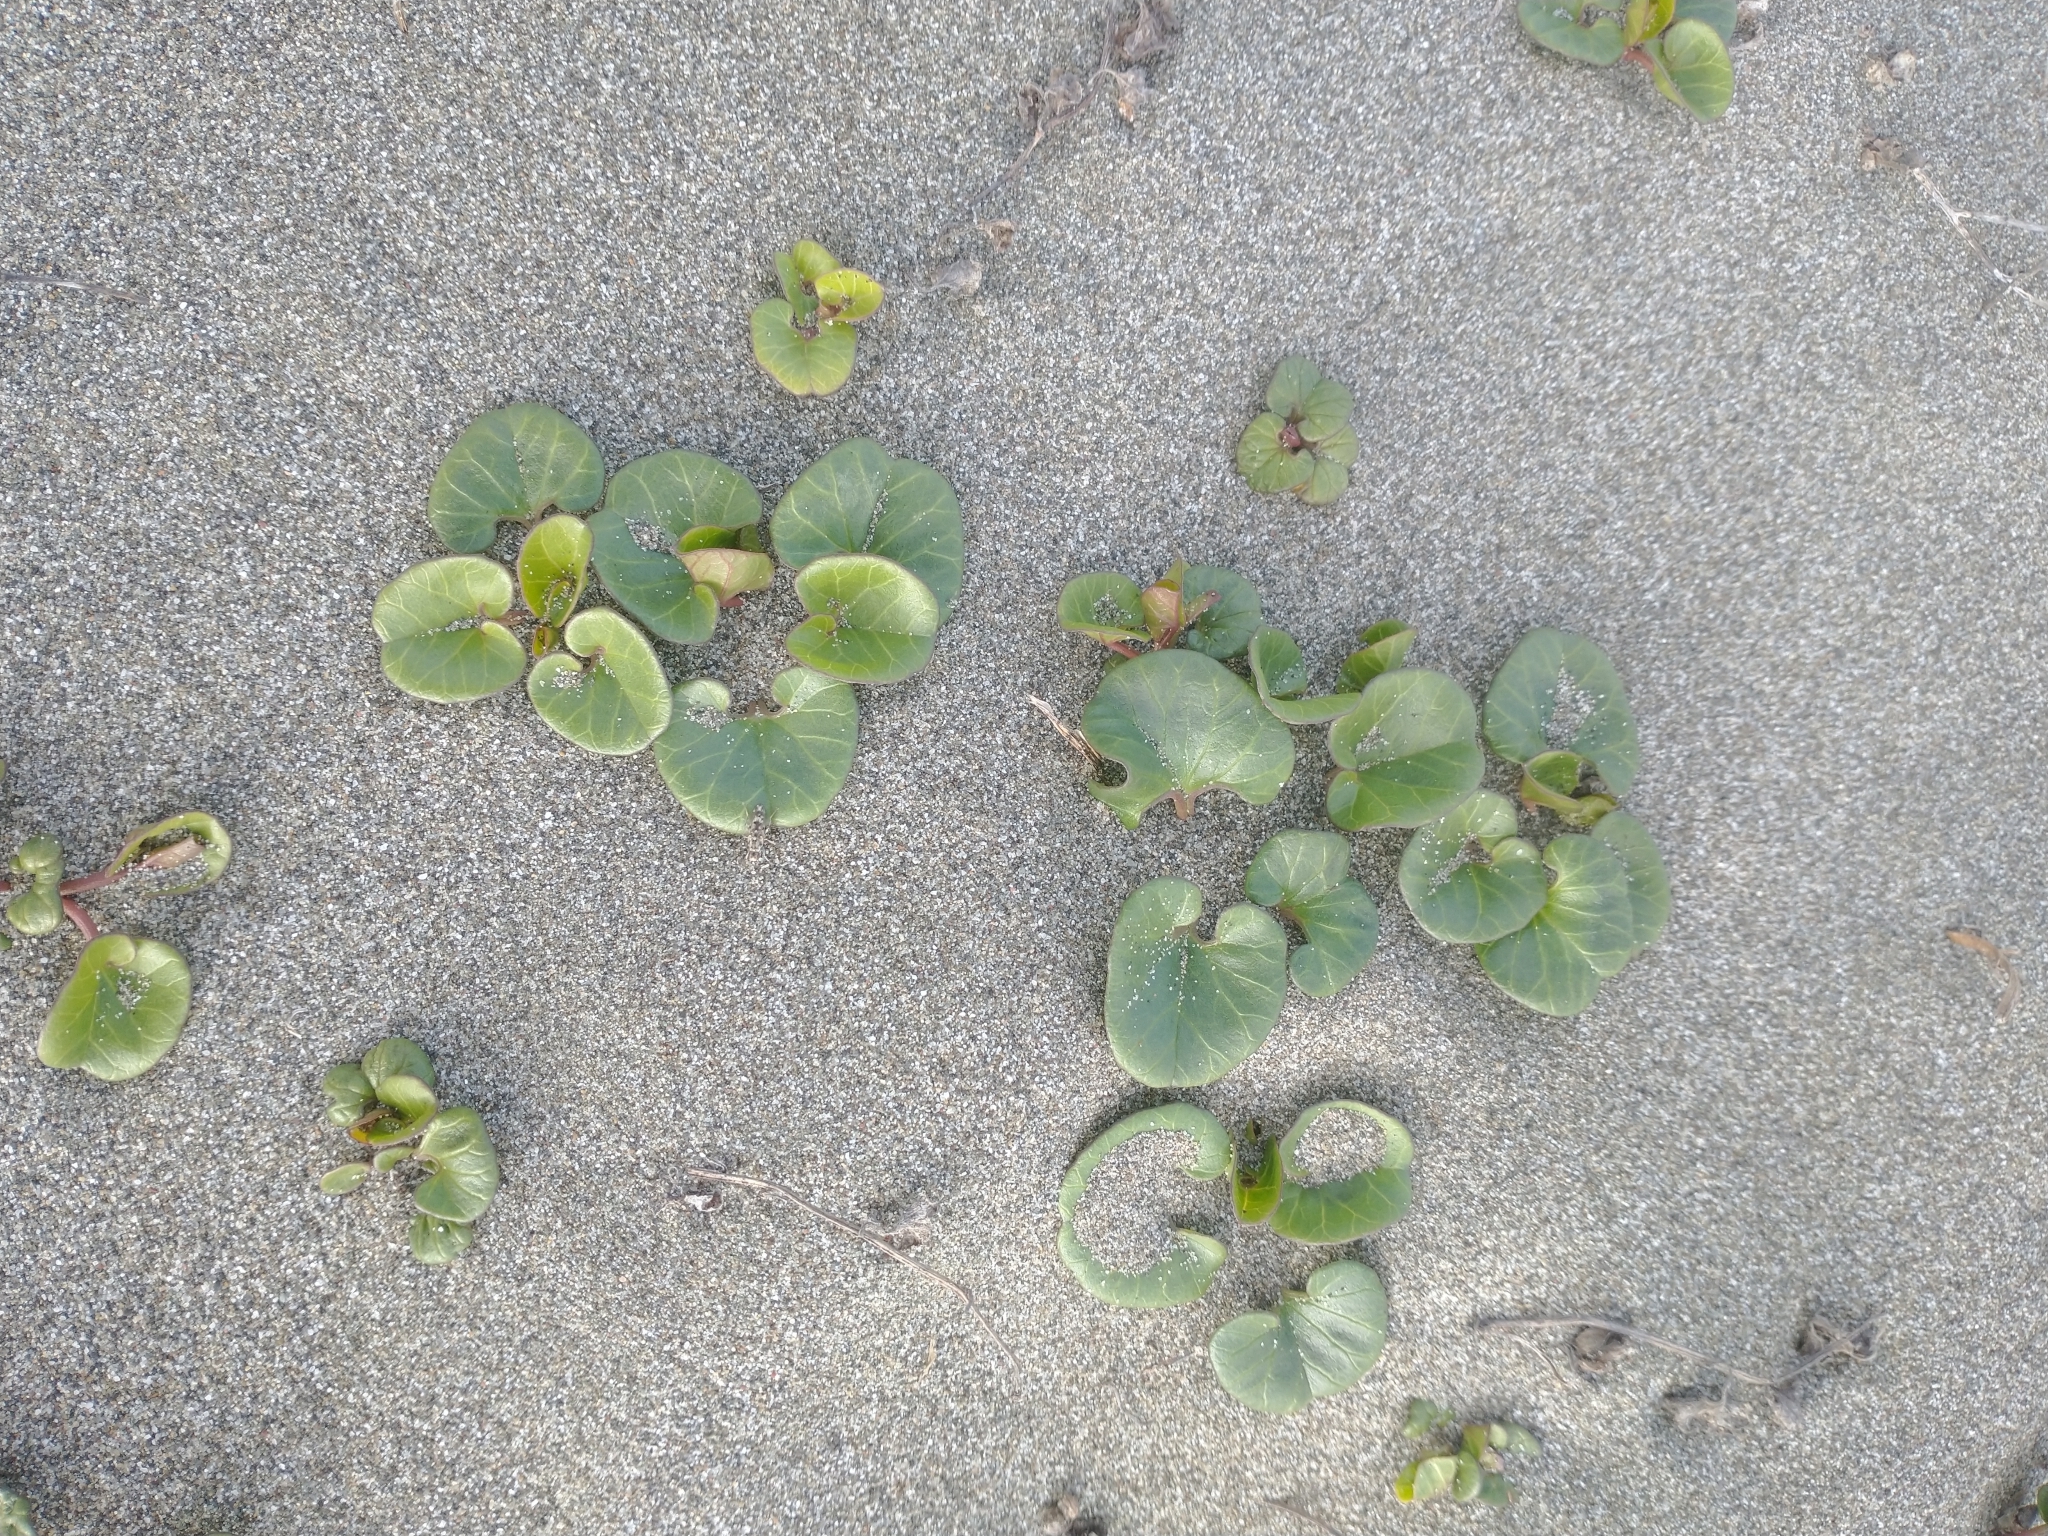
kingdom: Plantae
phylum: Tracheophyta
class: Magnoliopsida
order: Solanales
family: Convolvulaceae
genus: Calystegia
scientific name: Calystegia soldanella
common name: Sea bindweed
